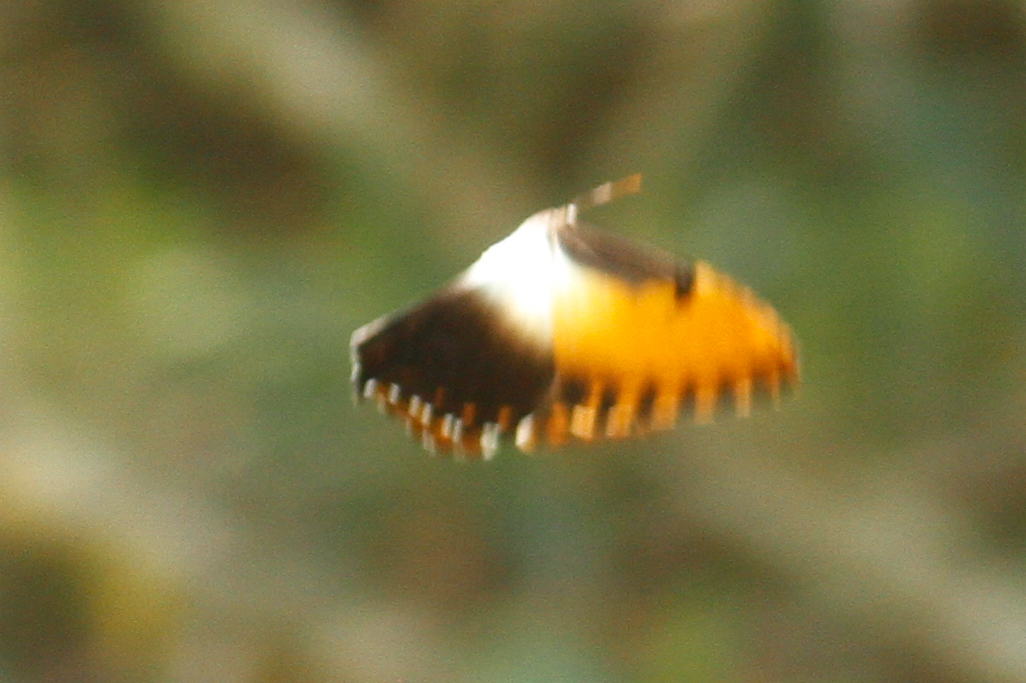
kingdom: Animalia
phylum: Arthropoda
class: Insecta
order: Lepidoptera
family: Nymphalidae
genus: Morpho
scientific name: Morpho hecuba
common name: Sunset morpho
